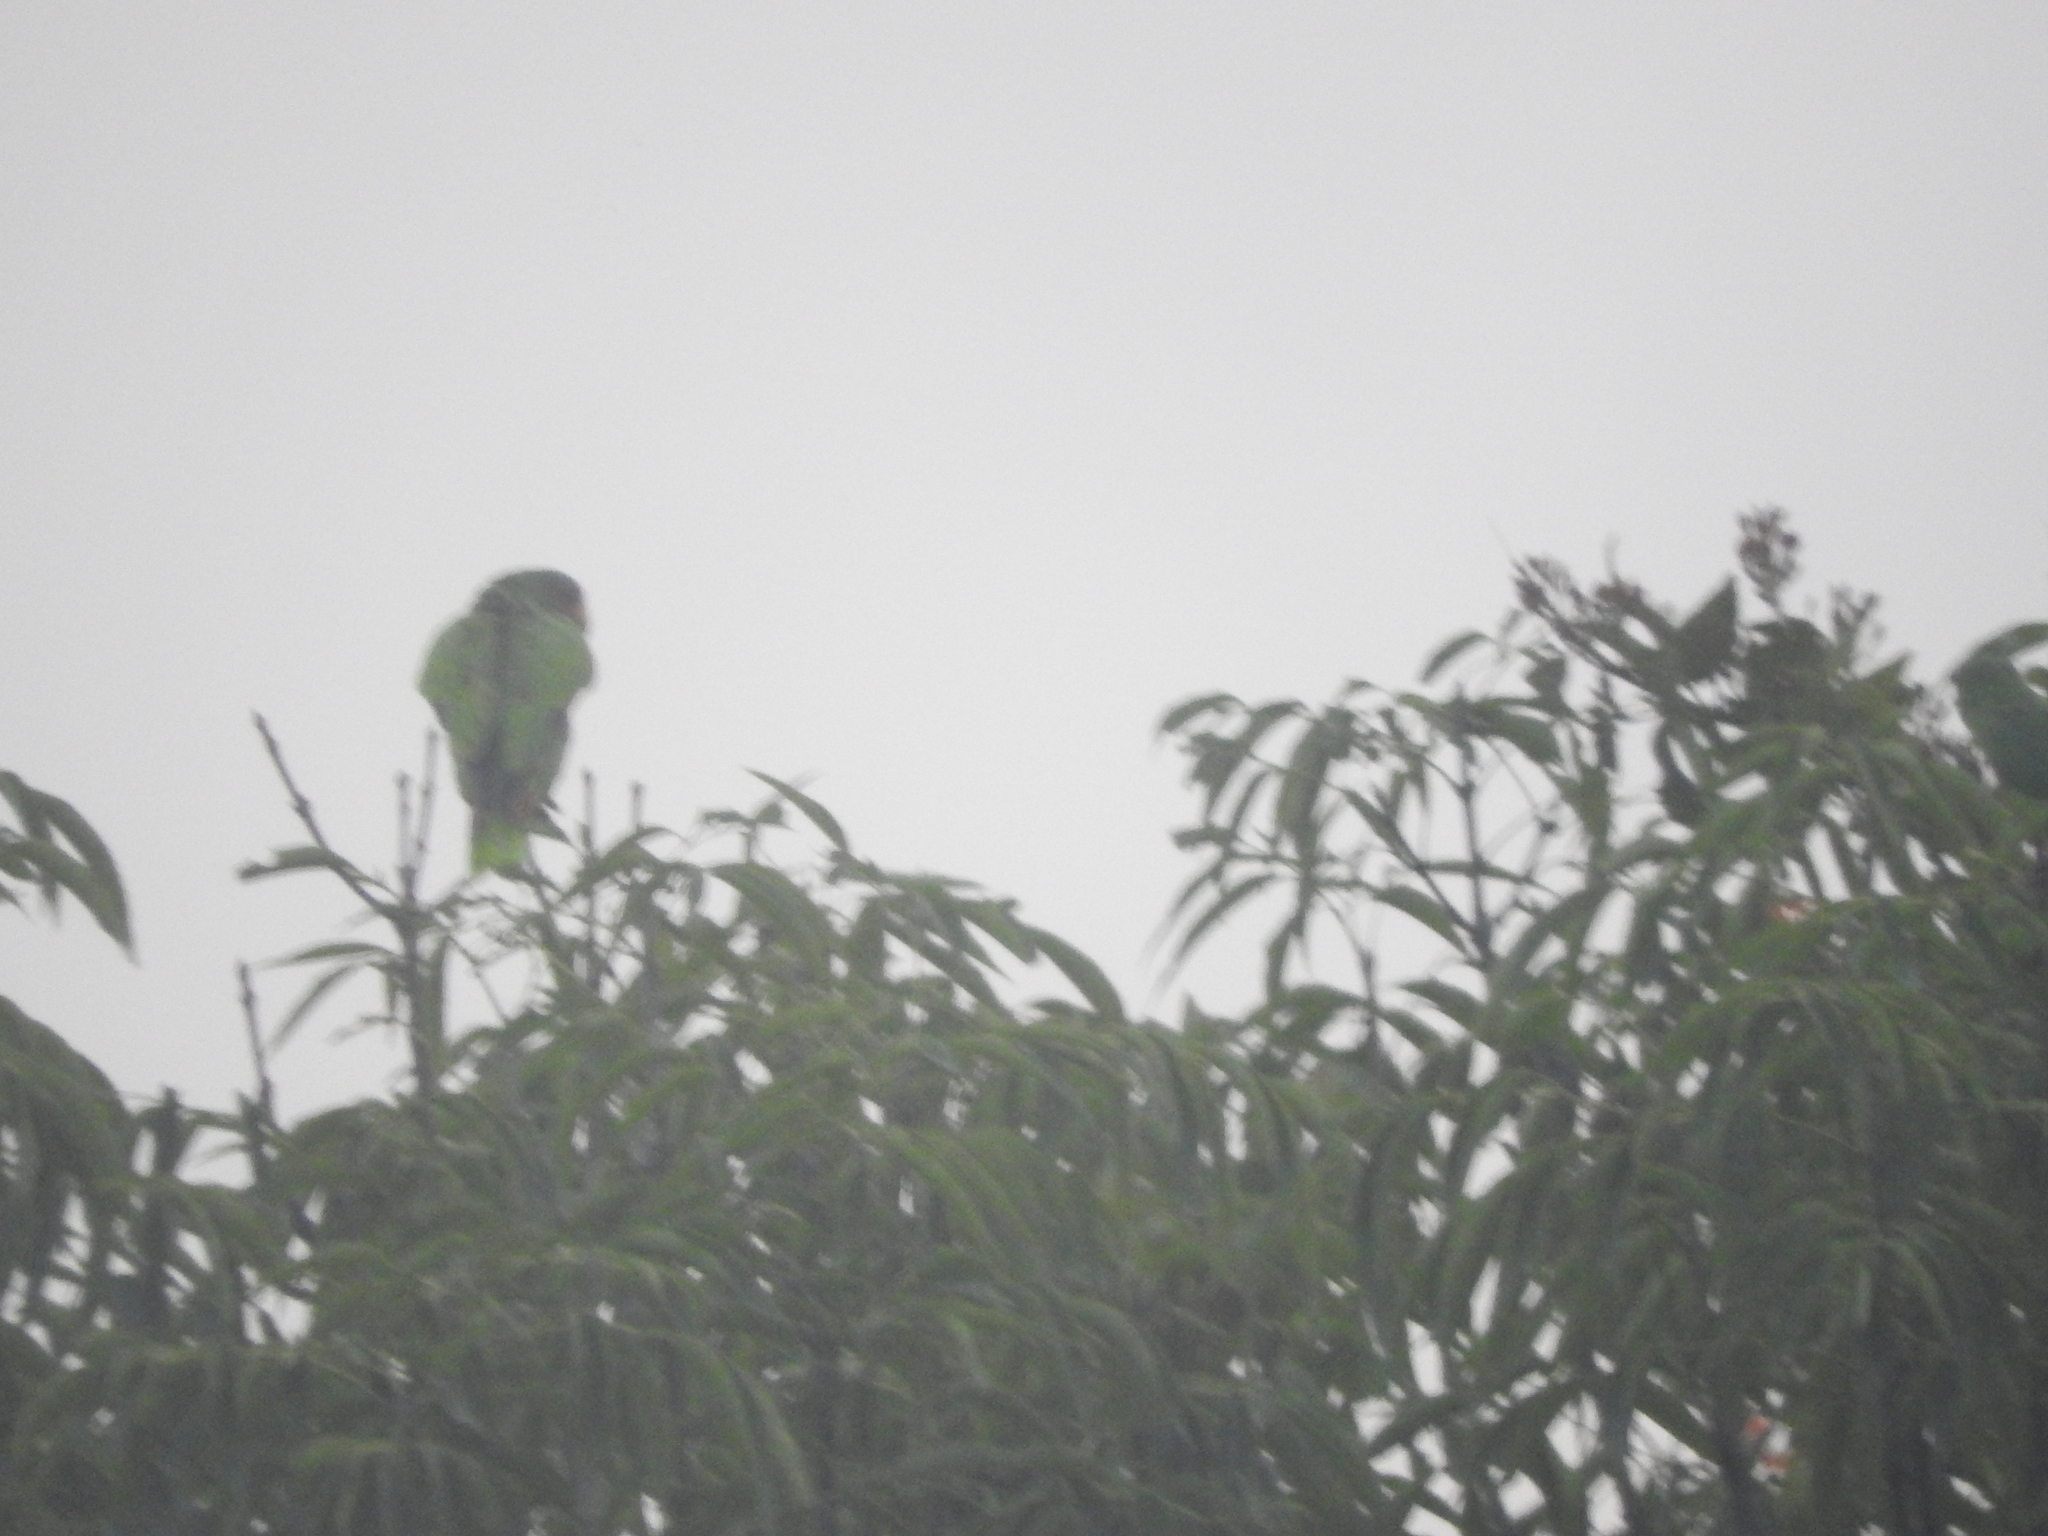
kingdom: Animalia
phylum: Chordata
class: Aves
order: Psittaciformes
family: Psittacidae
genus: Amazona
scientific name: Amazona
